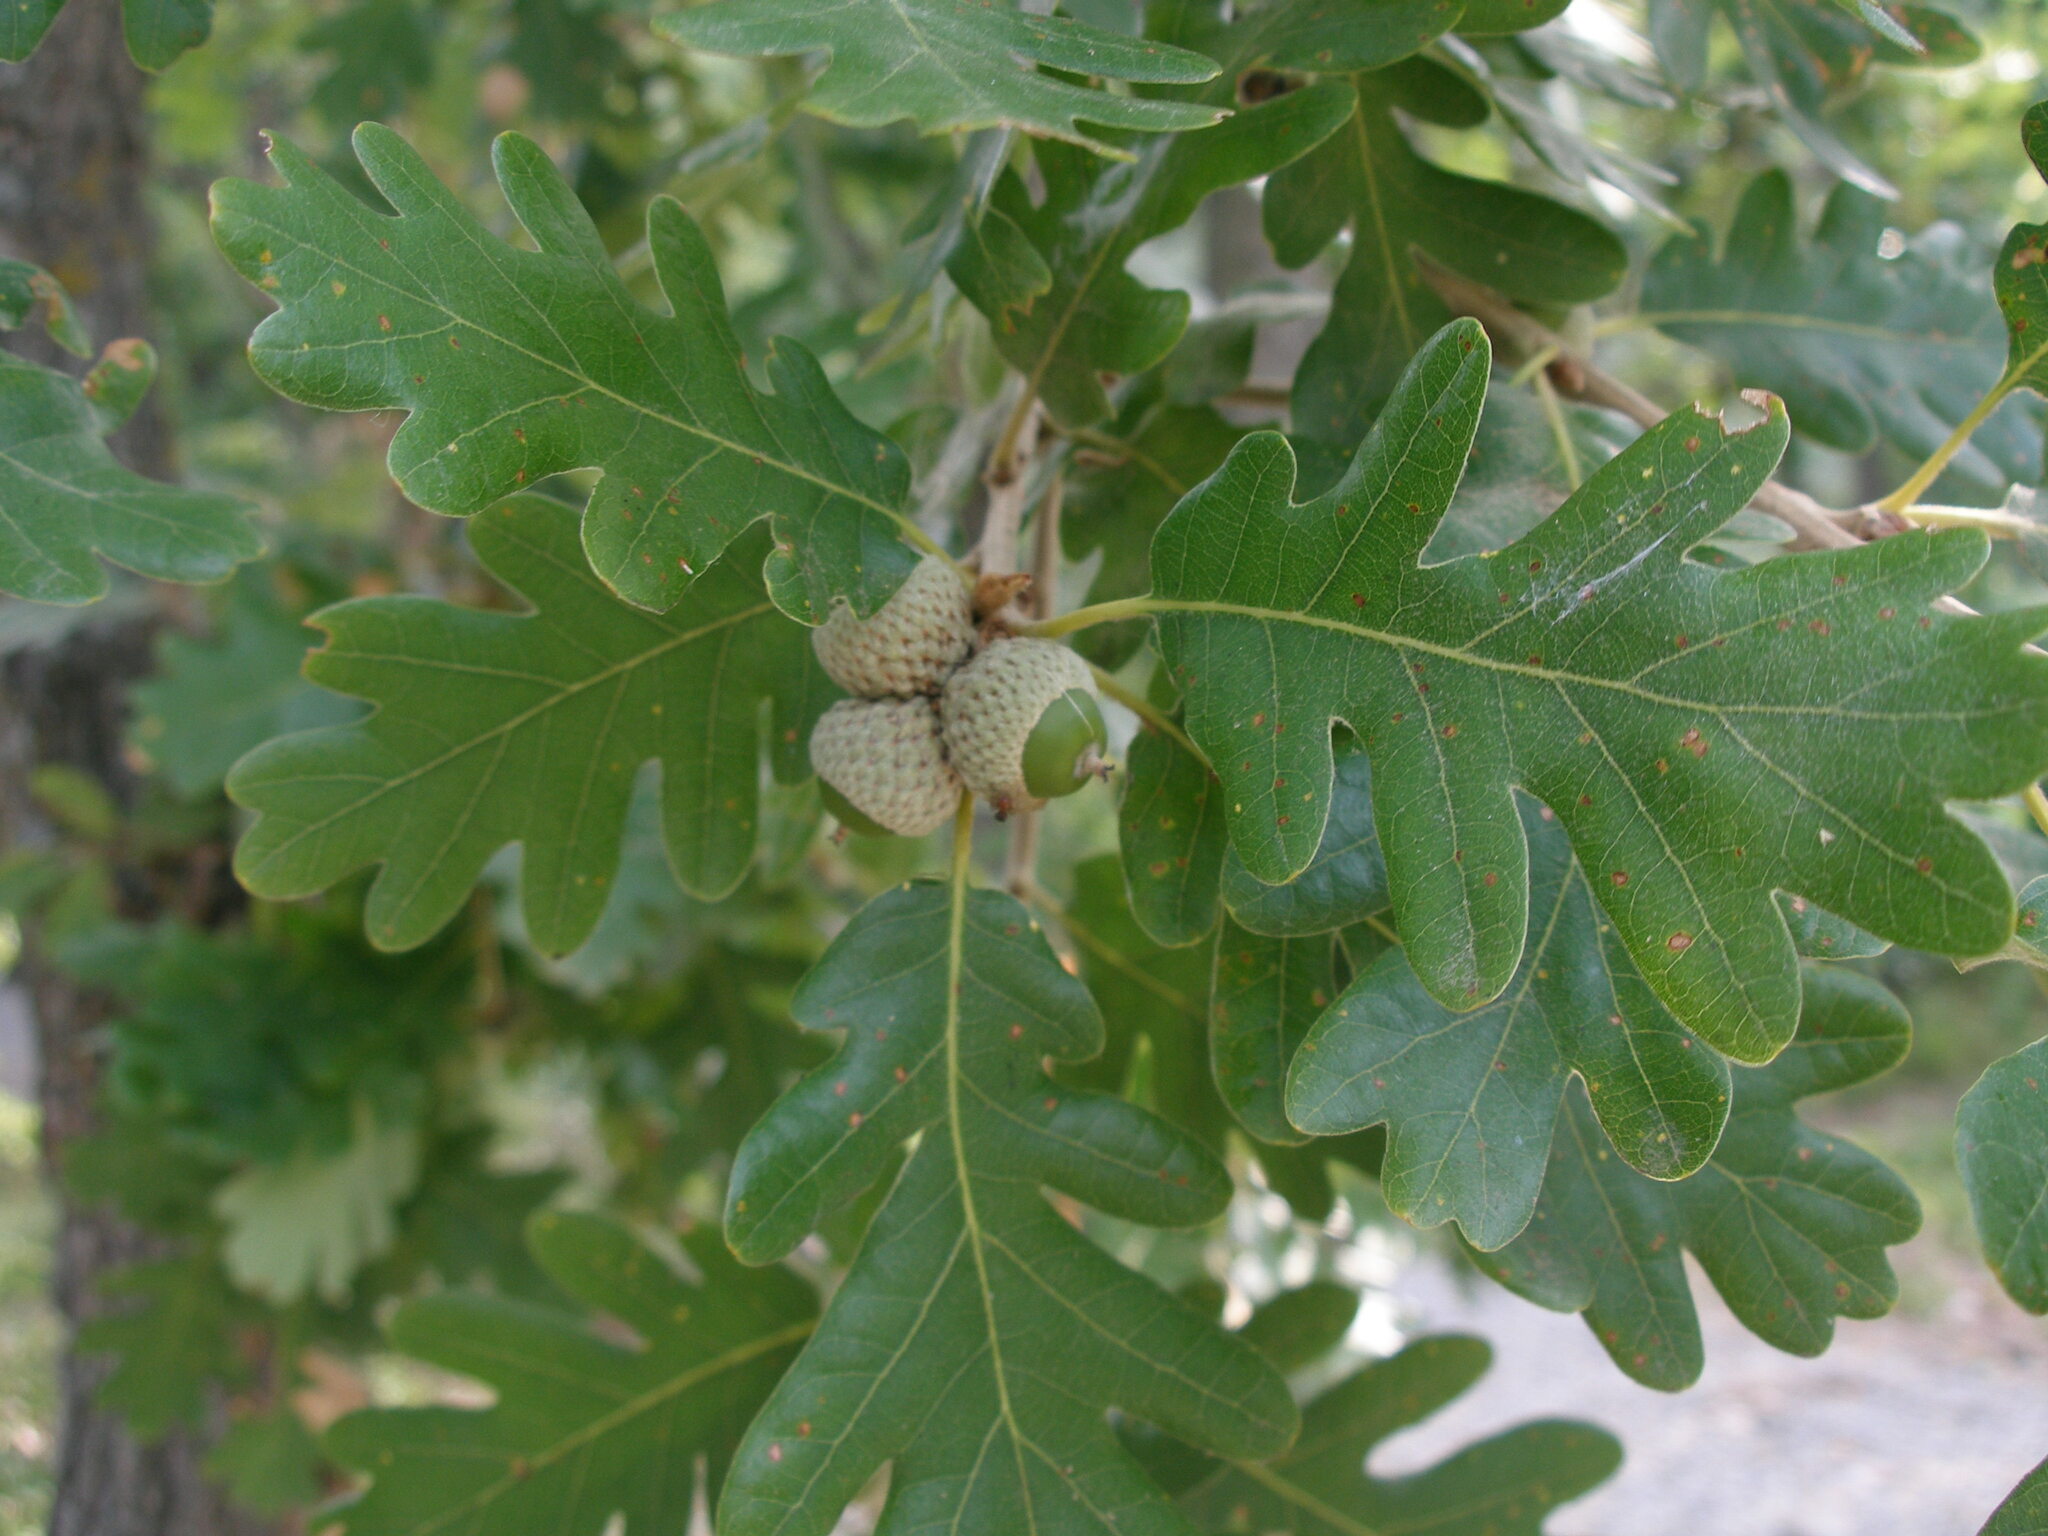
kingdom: Plantae
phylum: Tracheophyta
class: Magnoliopsida
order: Fagales
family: Fagaceae
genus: Quercus
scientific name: Quercus pubescens
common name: Downy oak
